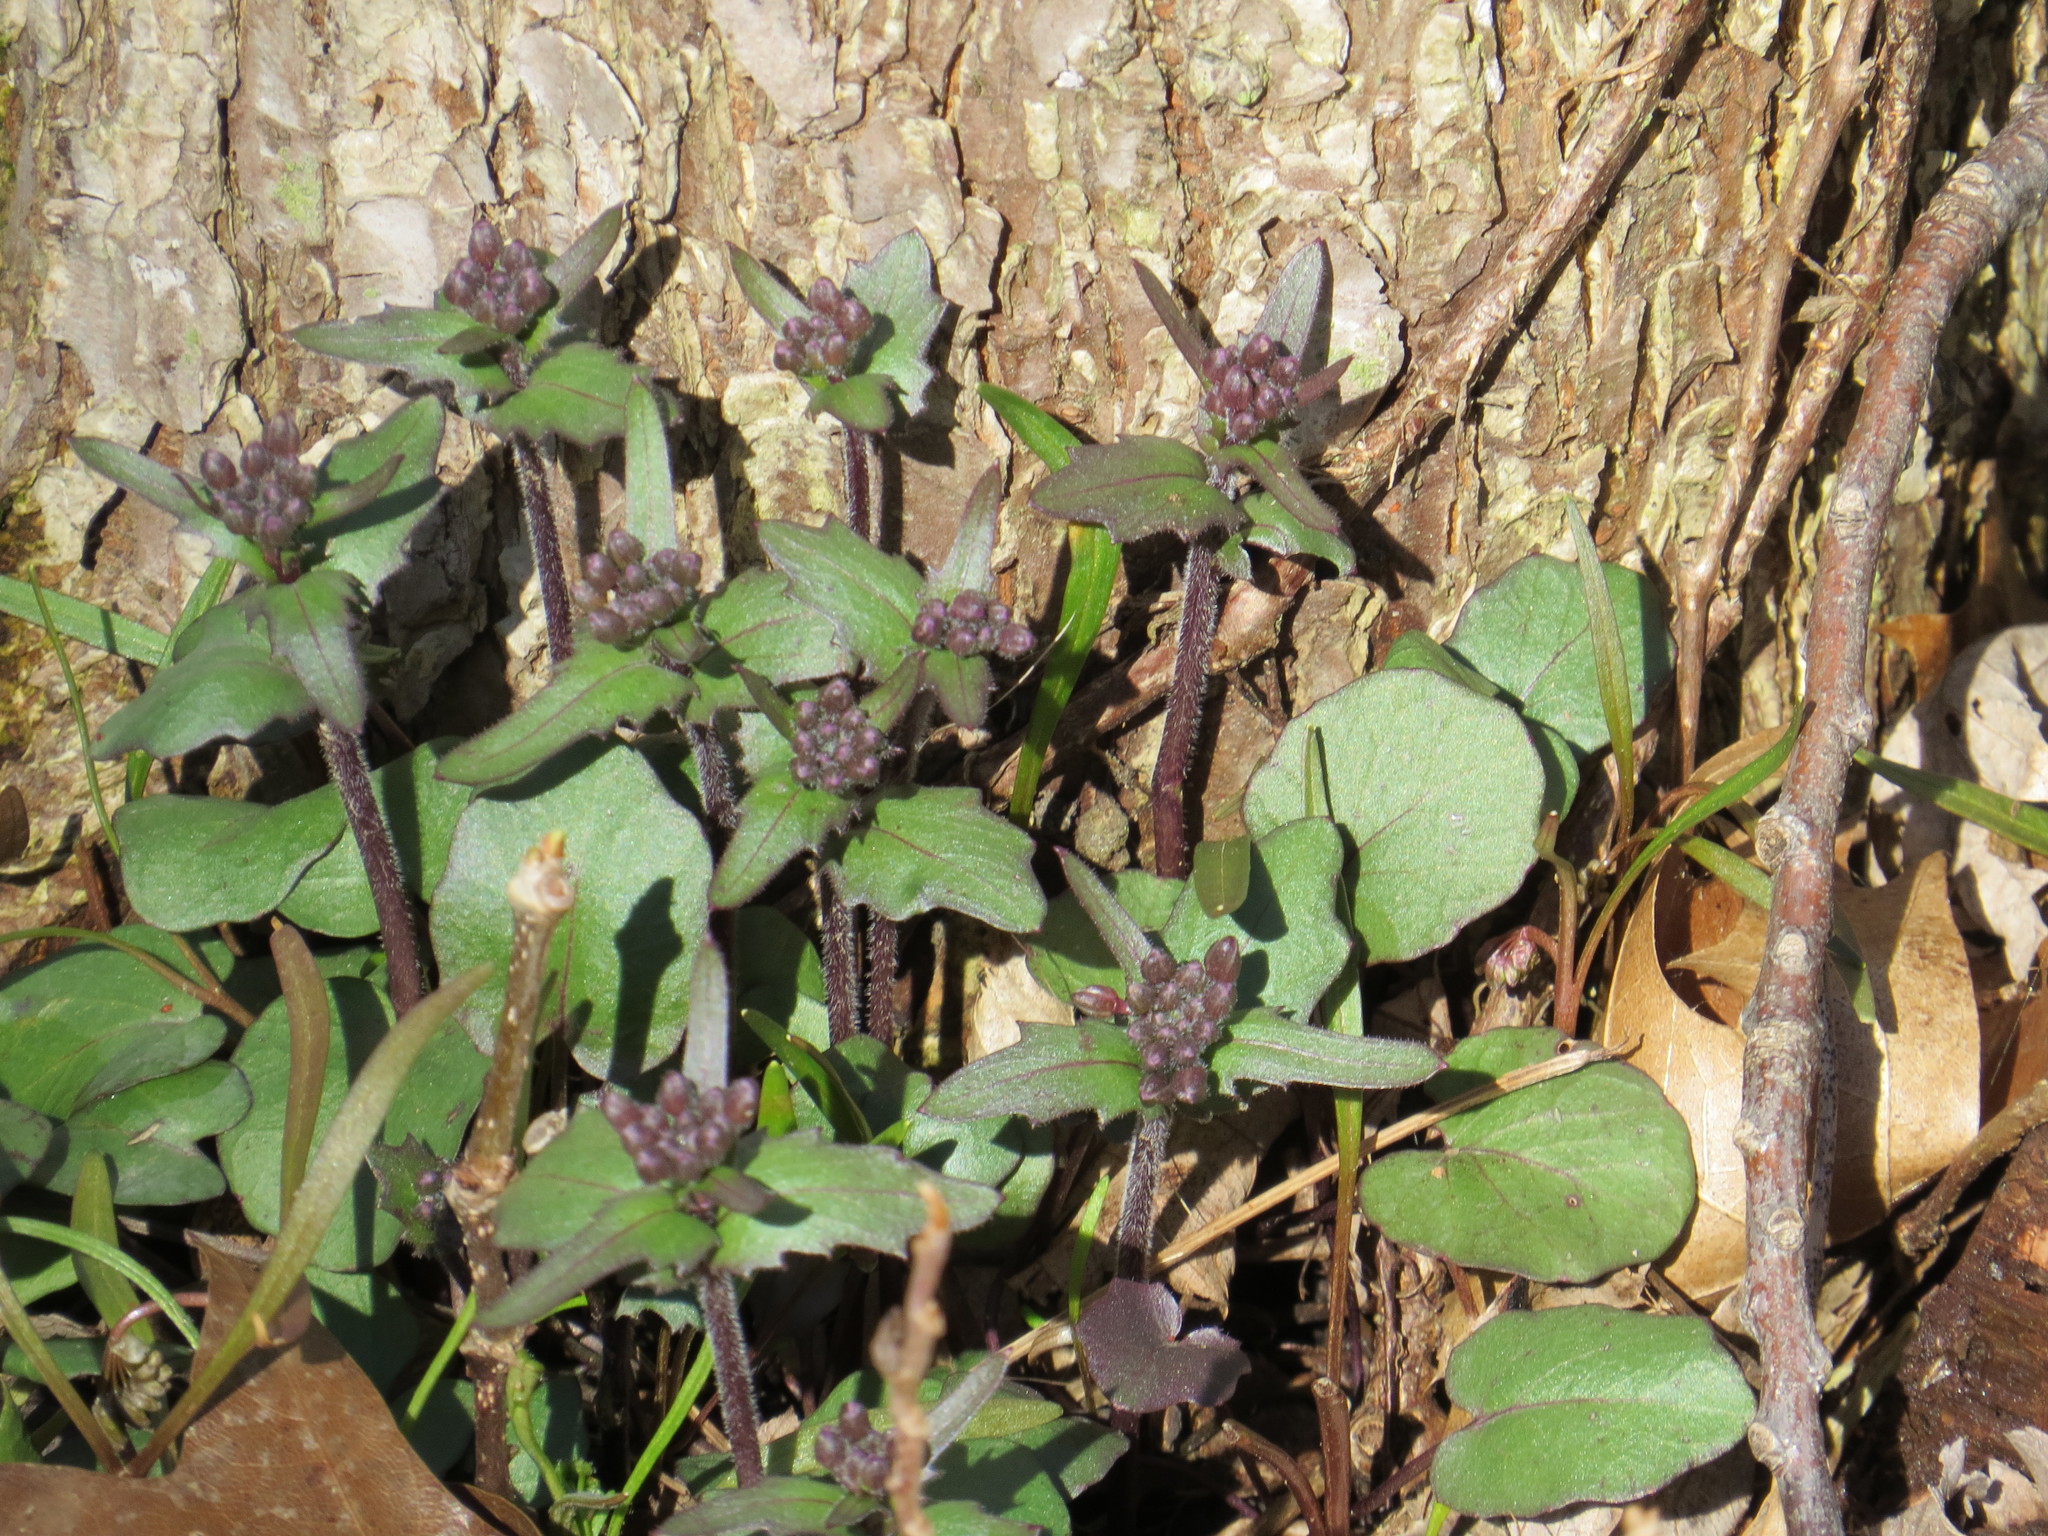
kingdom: Plantae
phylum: Tracheophyta
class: Magnoliopsida
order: Brassicales
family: Brassicaceae
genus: Cardamine
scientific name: Cardamine douglassii
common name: Purple cress
